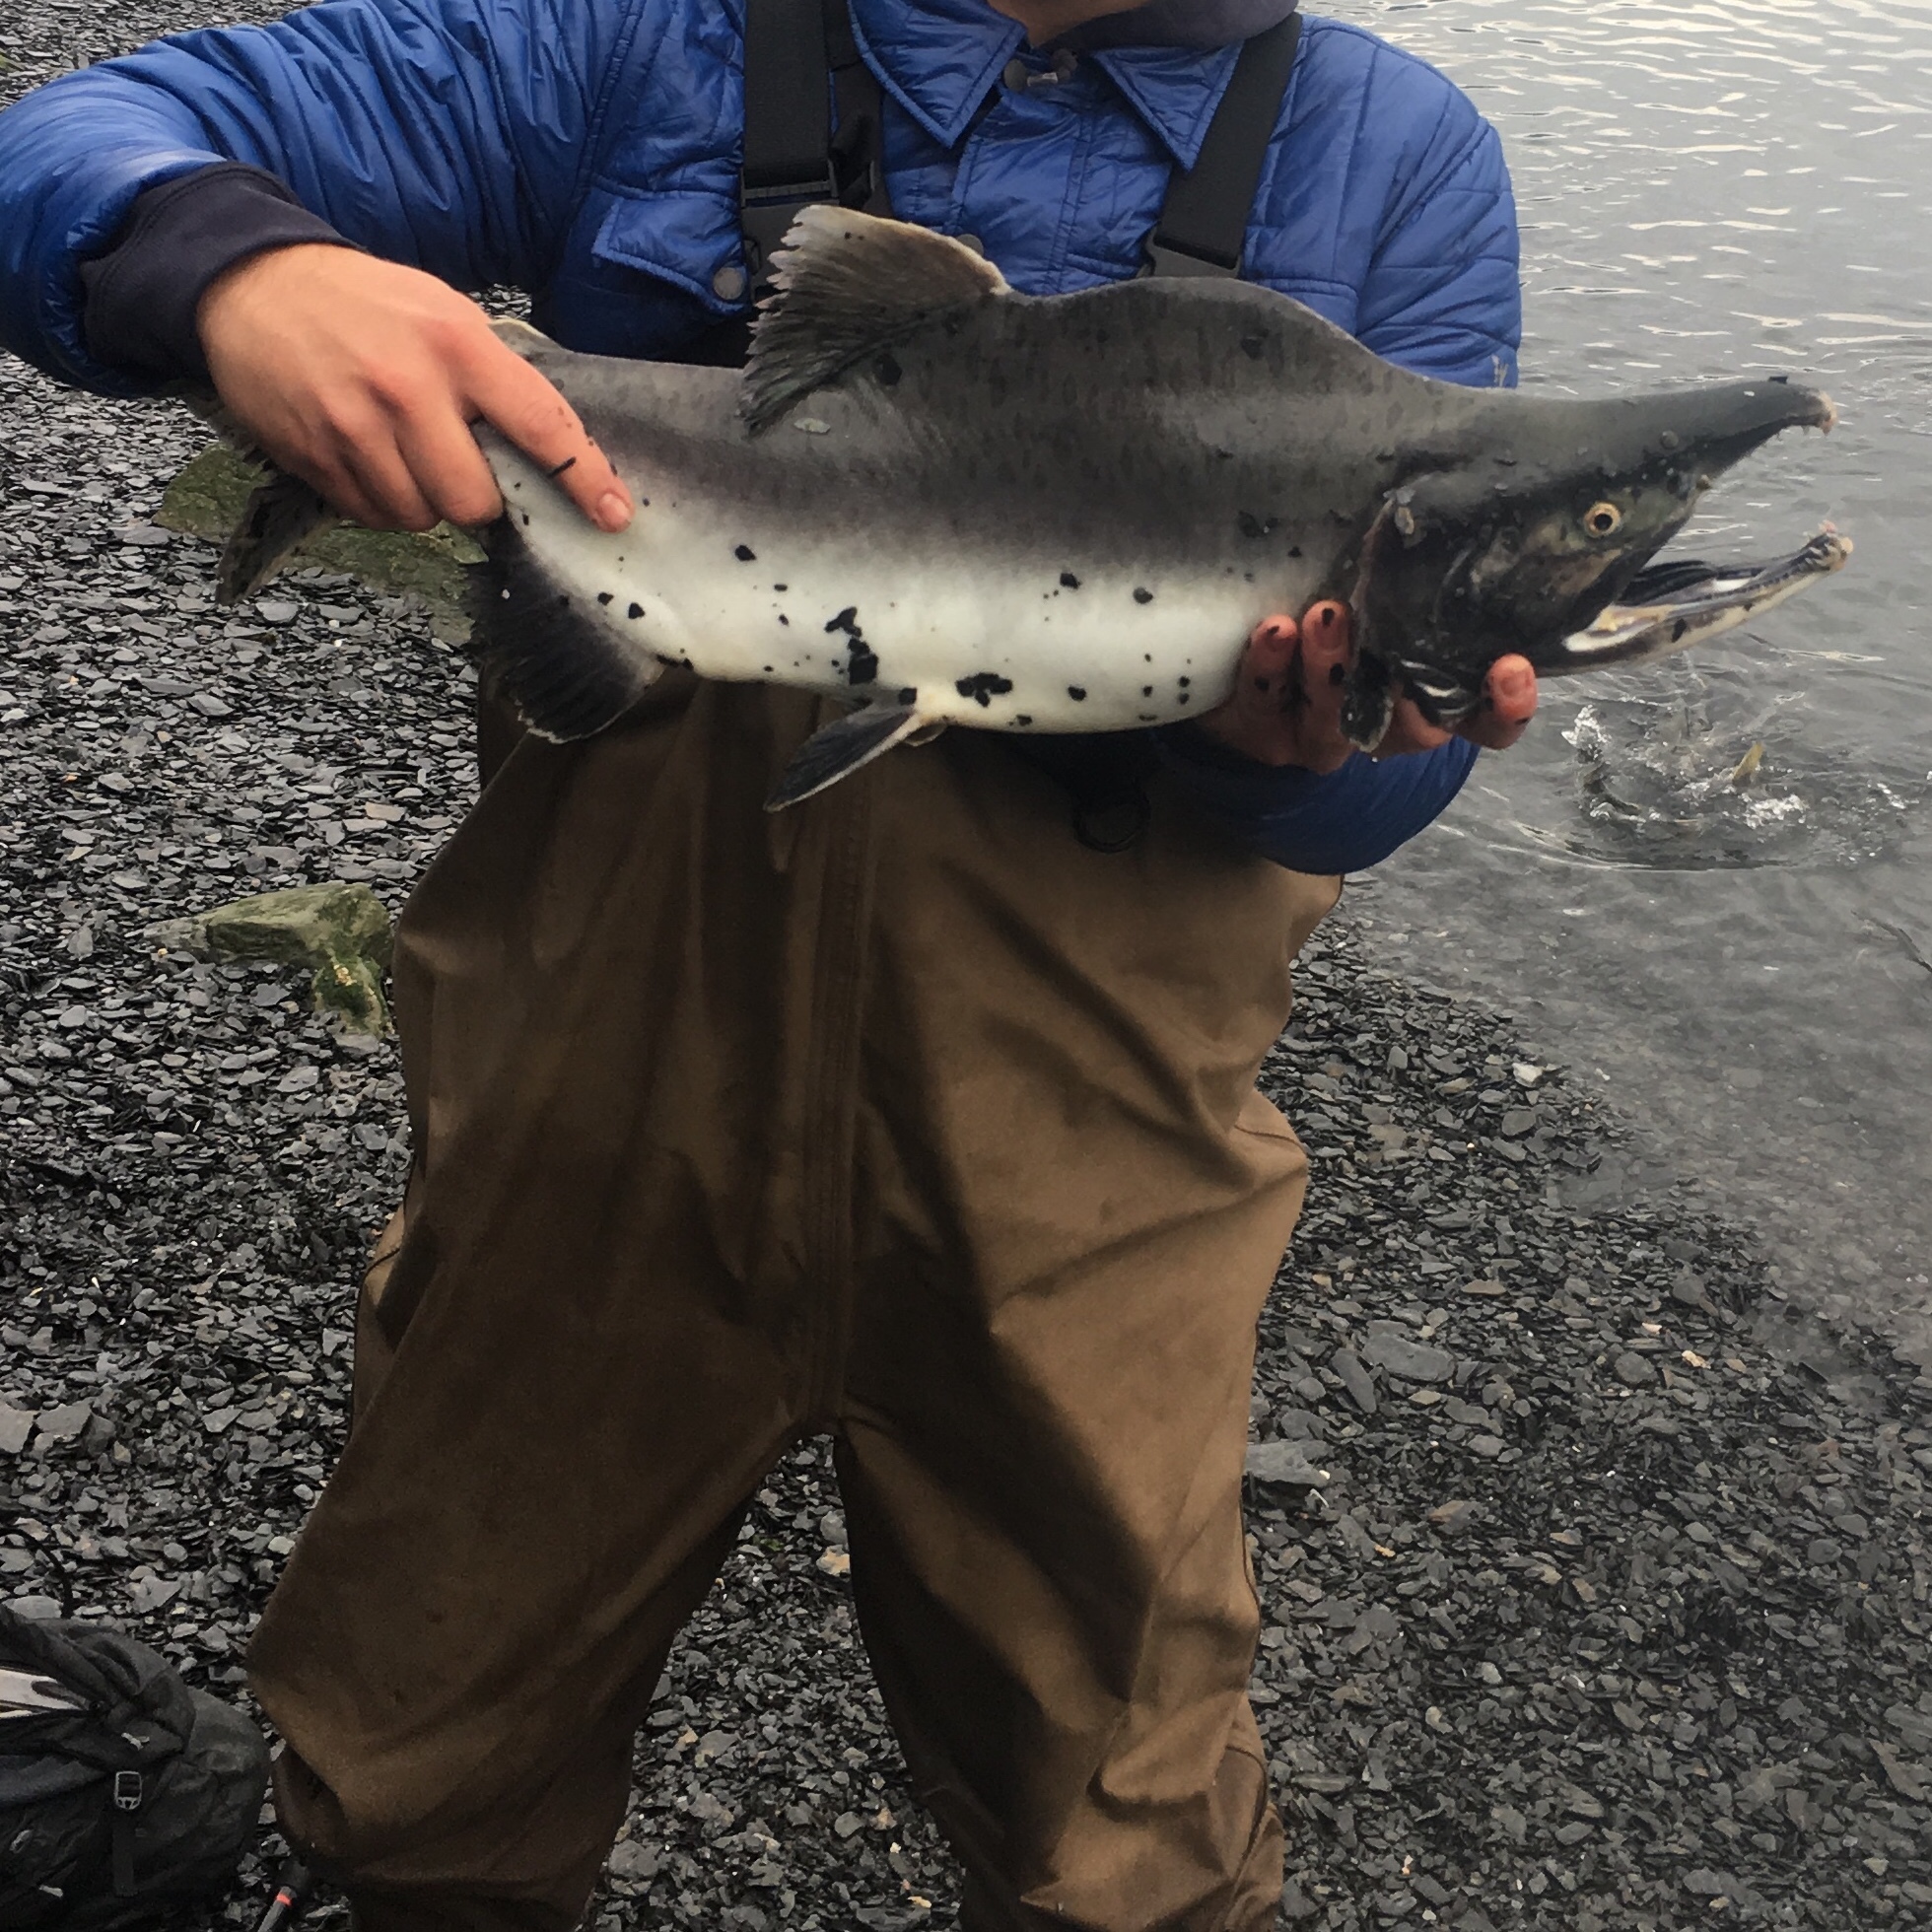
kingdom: Animalia
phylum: Chordata
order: Salmoniformes
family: Salmonidae
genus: Oncorhynchus
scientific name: Oncorhynchus gorbuscha
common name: Humpback salmon
